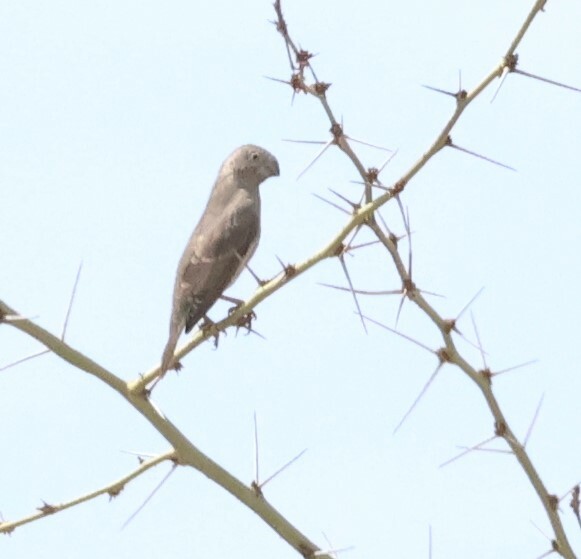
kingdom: Animalia
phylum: Chordata
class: Aves
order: Passeriformes
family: Estrildidae
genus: Amadina
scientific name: Amadina erythrocephala
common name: Red-headed finch
